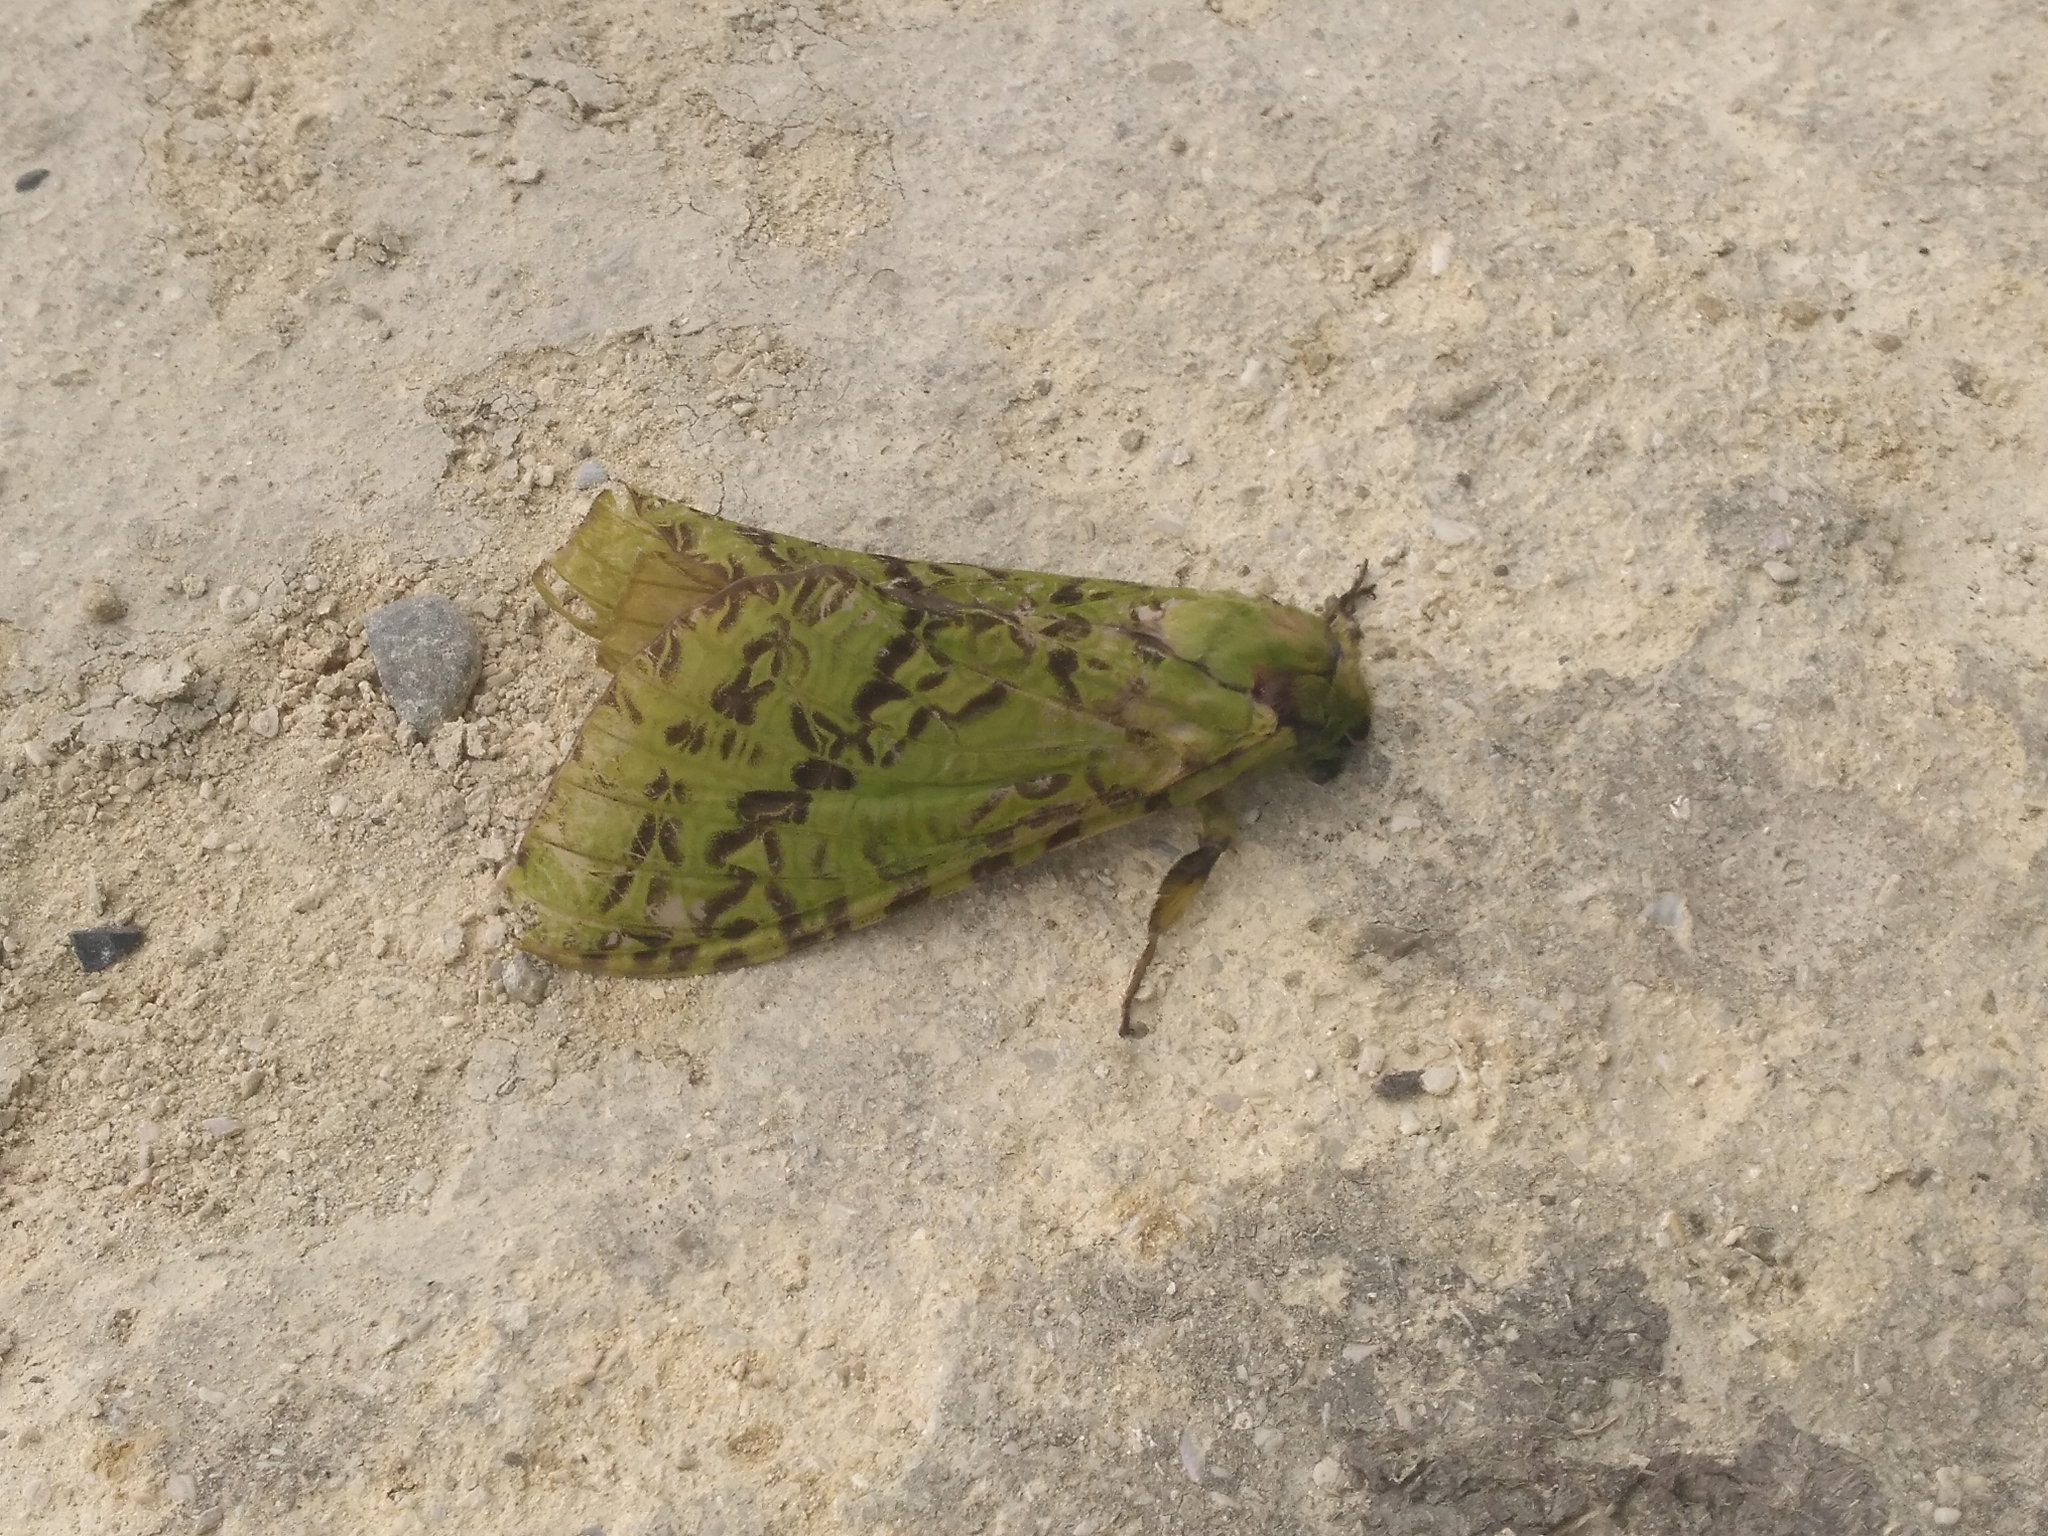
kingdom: Animalia
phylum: Arthropoda
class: Insecta
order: Lepidoptera
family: Hepialidae
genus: Aenetus
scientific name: Aenetus virescens
